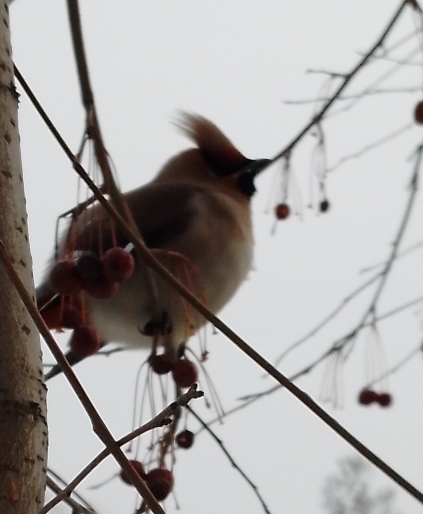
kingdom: Animalia
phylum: Chordata
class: Aves
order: Passeriformes
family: Bombycillidae
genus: Bombycilla
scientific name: Bombycilla garrulus
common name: Bohemian waxwing
